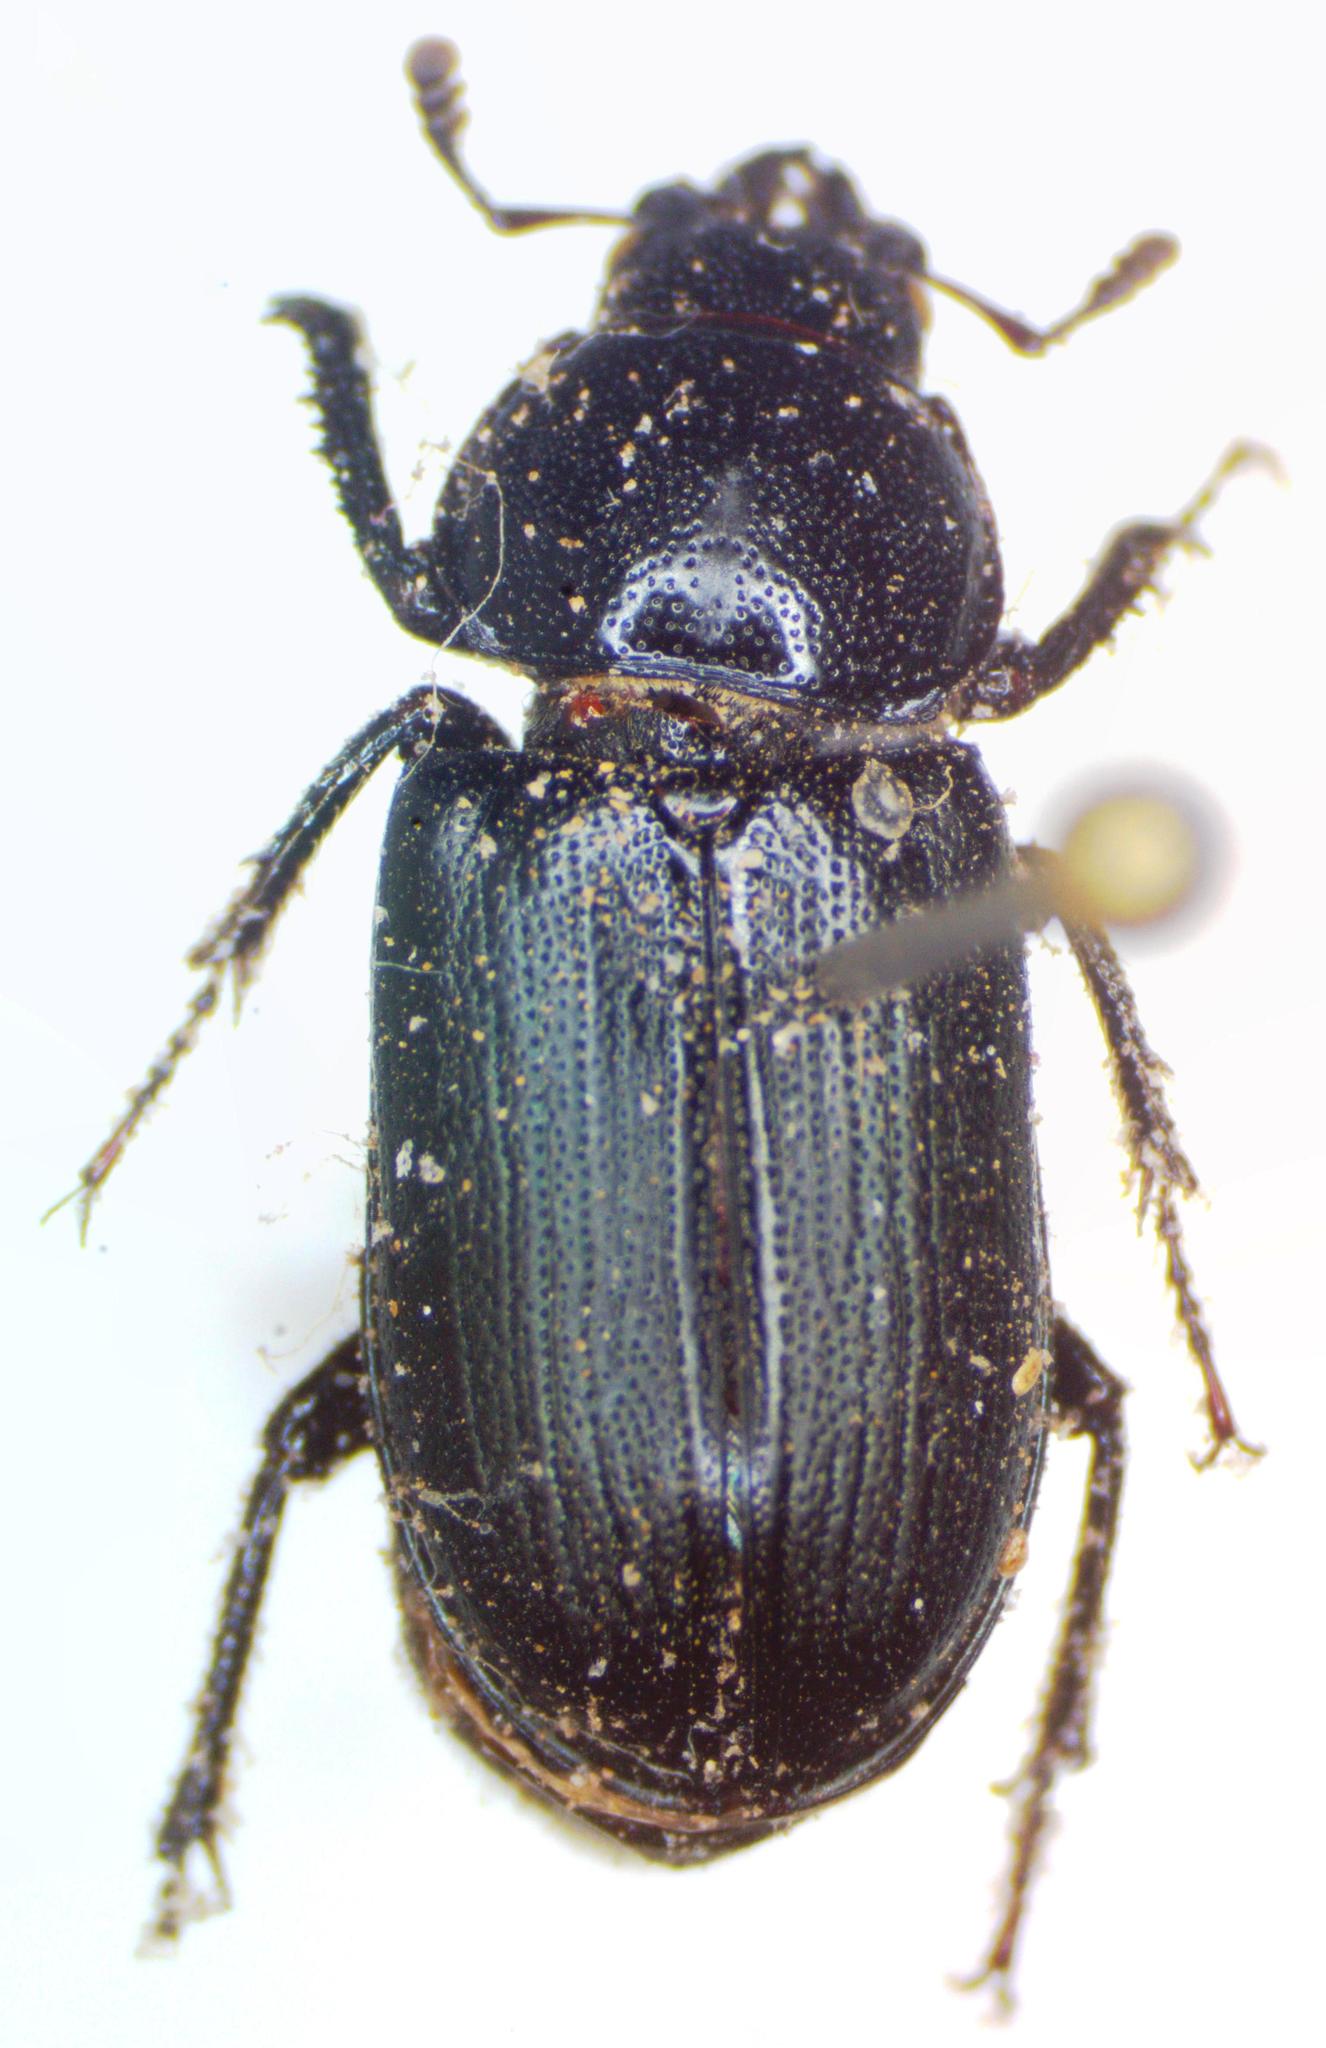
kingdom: Animalia
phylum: Arthropoda
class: Insecta
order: Coleoptera
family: Lucanidae
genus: Platycerus
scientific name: Platycerus oregonensis
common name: Oregon stag beetle
